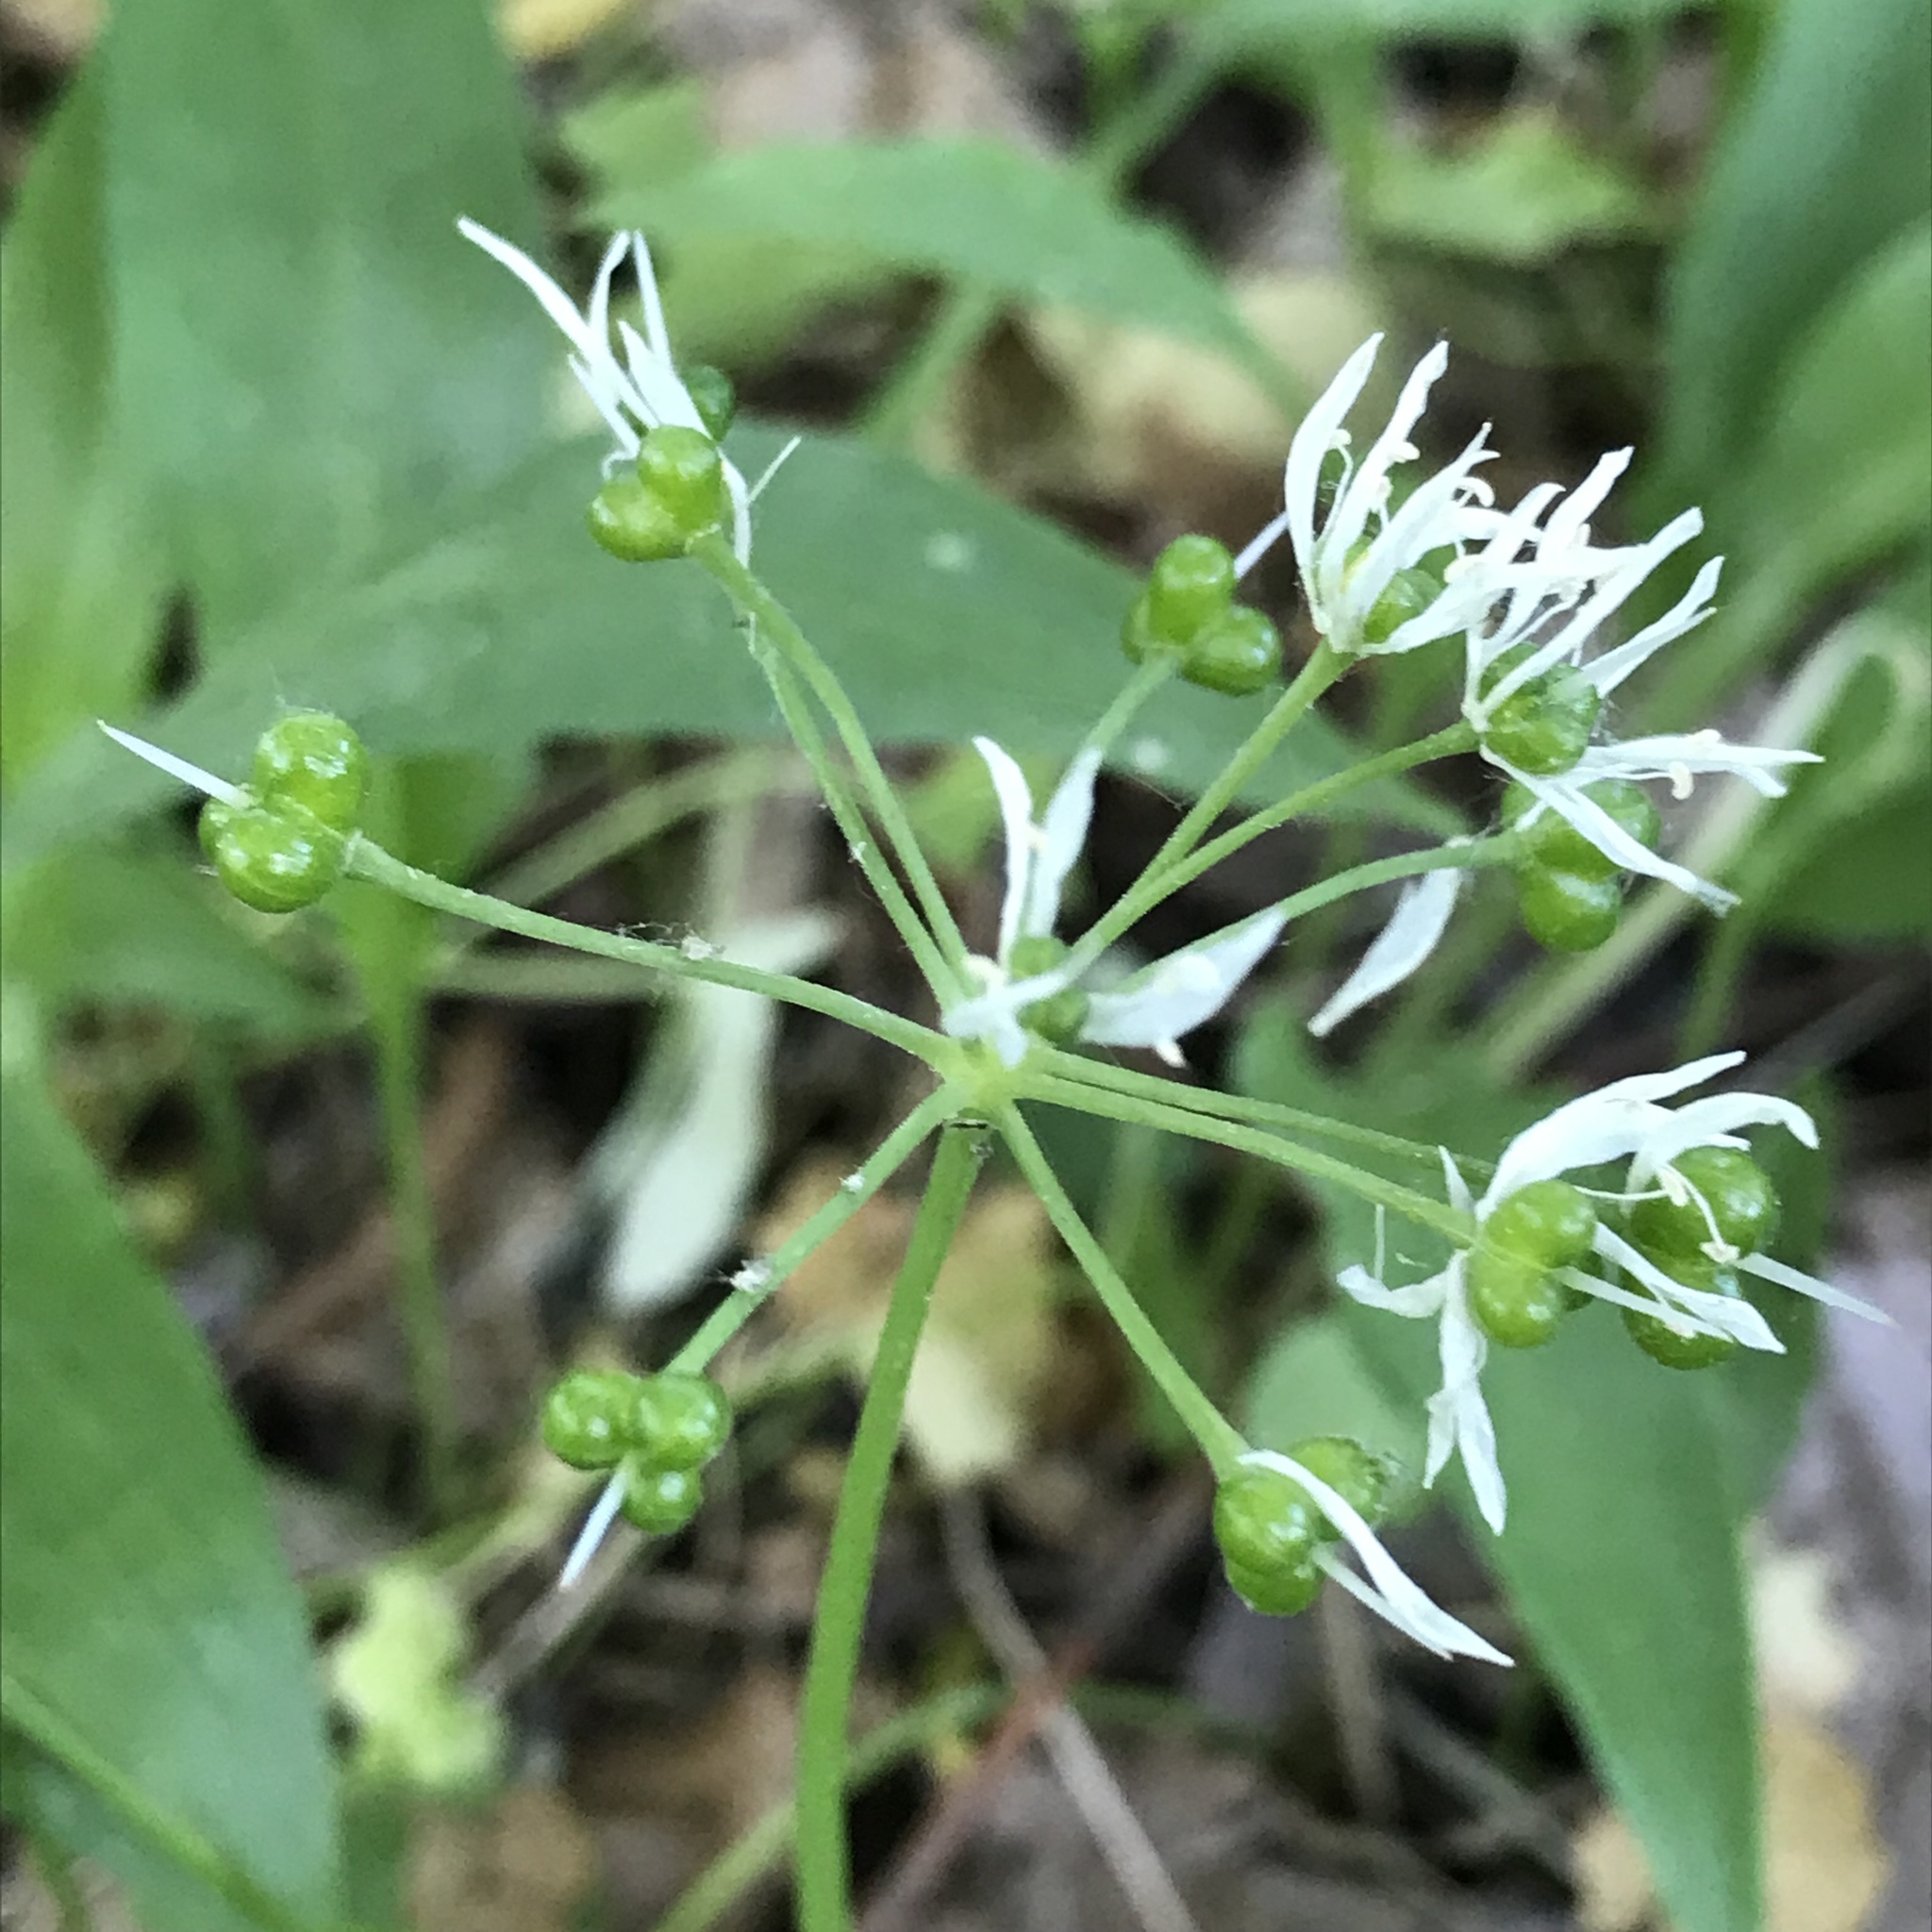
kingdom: Plantae
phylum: Tracheophyta
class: Liliopsida
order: Asparagales
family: Amaryllidaceae
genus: Allium
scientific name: Allium ursinum
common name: Ramsons
